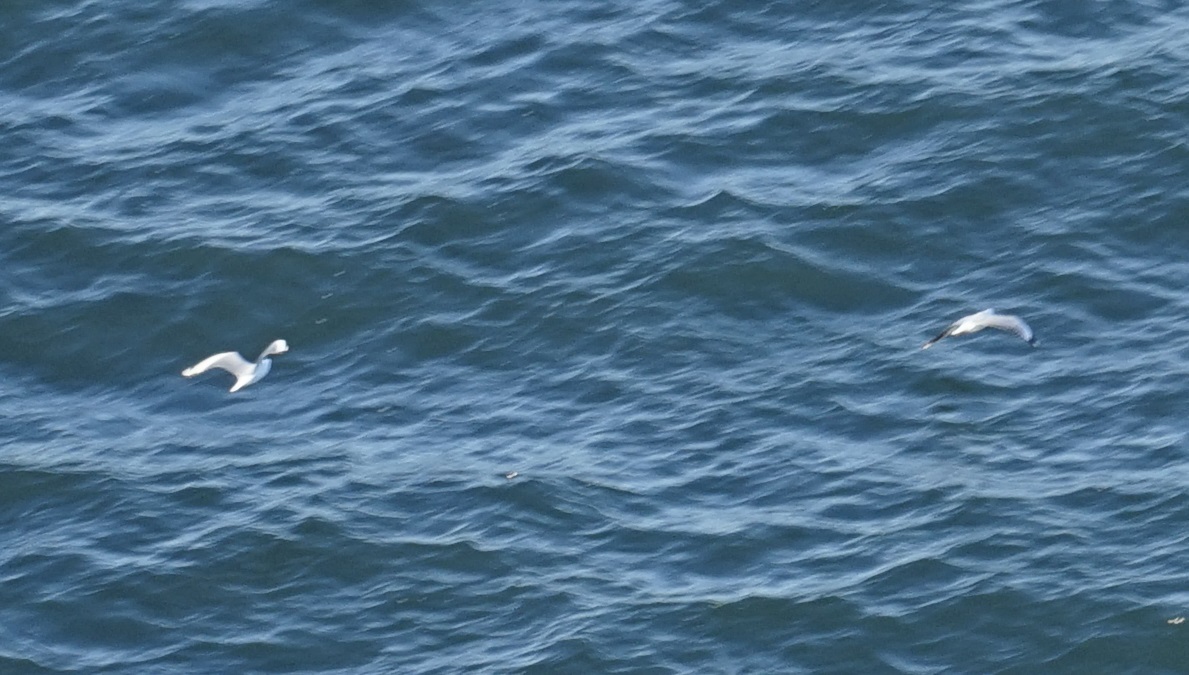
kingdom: Animalia
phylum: Chordata
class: Aves
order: Charadriiformes
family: Laridae
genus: Chroicocephalus
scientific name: Chroicocephalus novaehollandiae
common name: Silver gull
